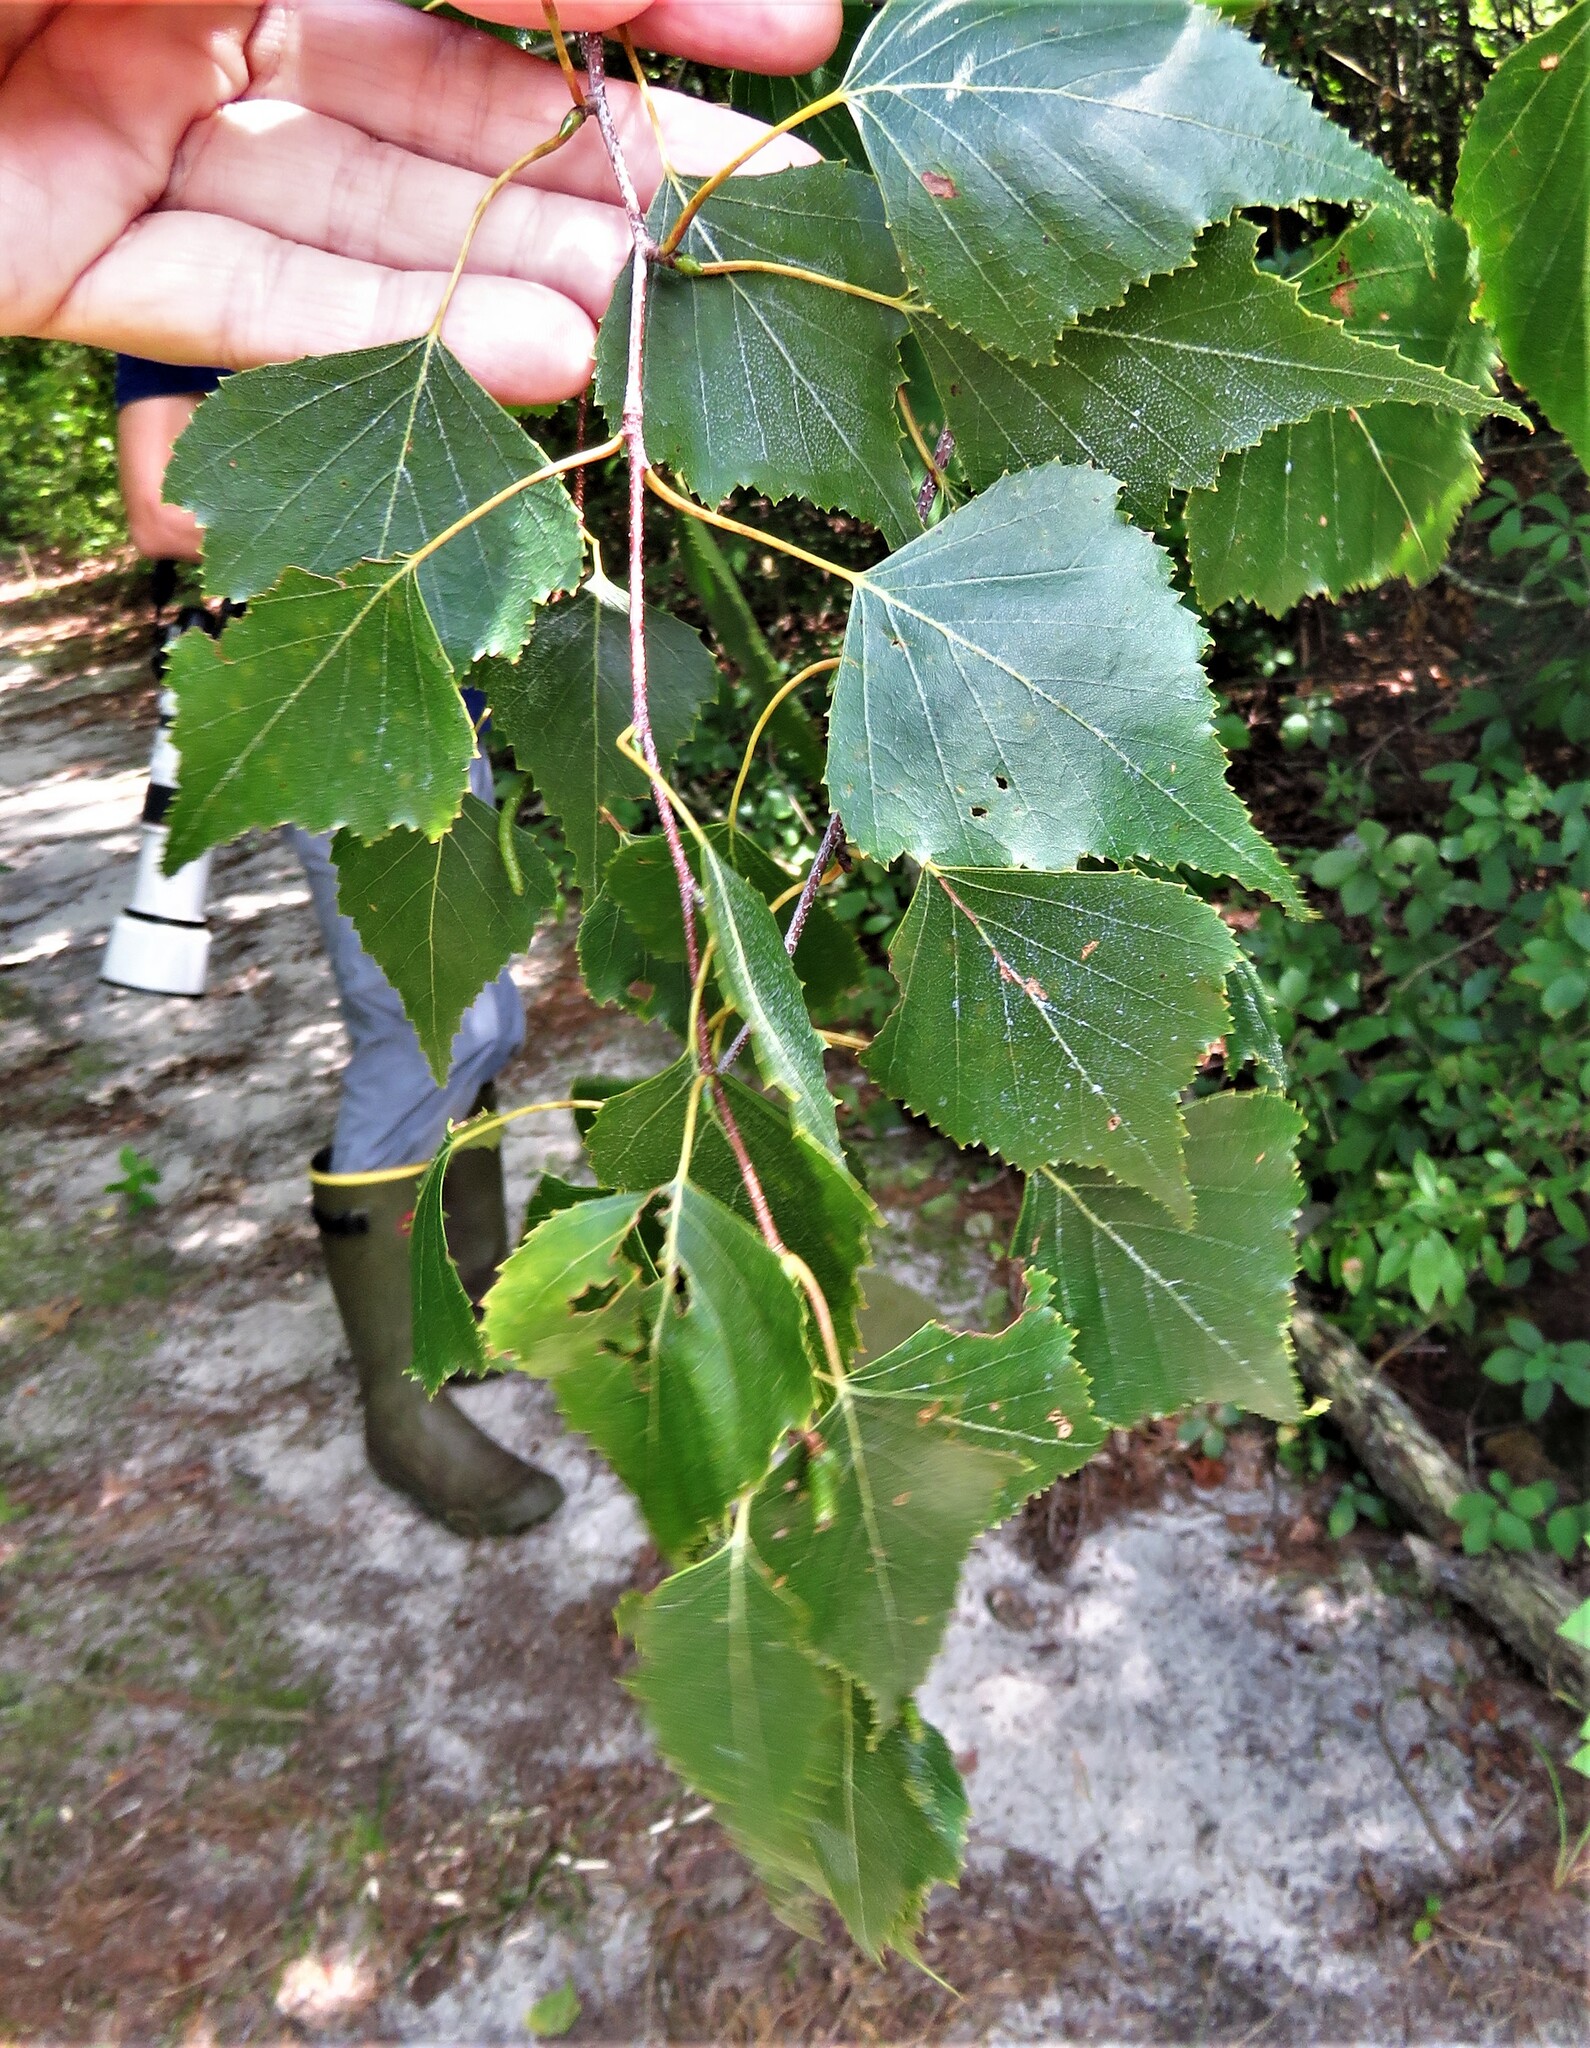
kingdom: Plantae
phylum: Tracheophyta
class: Magnoliopsida
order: Fagales
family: Betulaceae
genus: Betula
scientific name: Betula populifolia
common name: Fire birch
